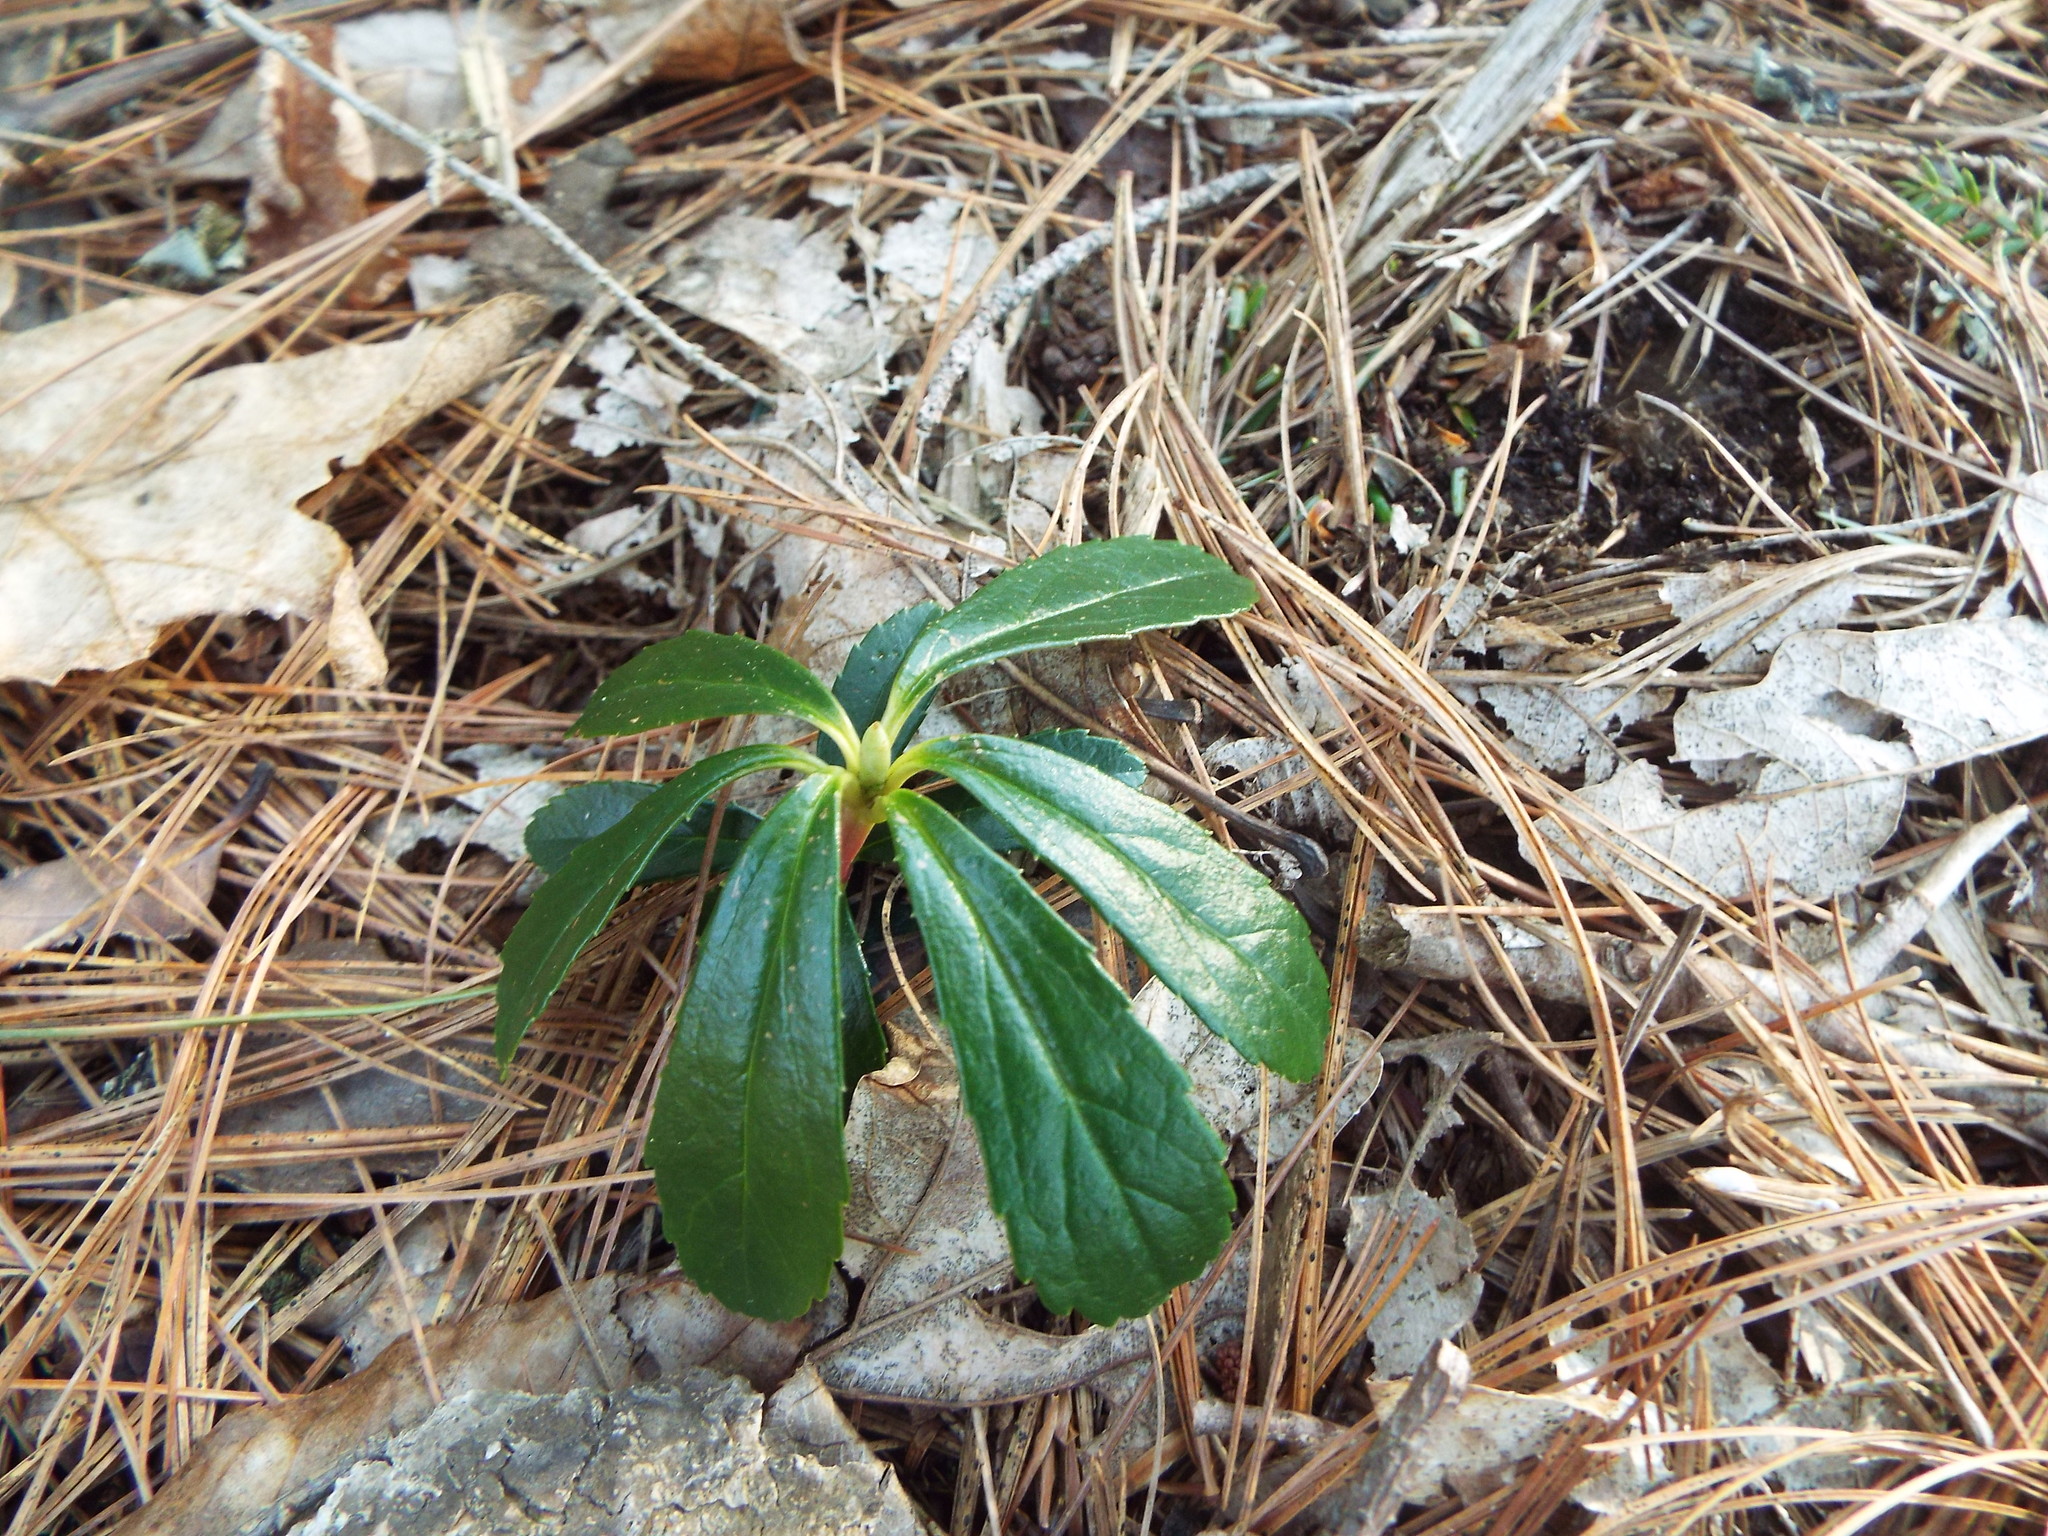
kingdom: Plantae
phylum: Tracheophyta
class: Magnoliopsida
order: Ericales
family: Ericaceae
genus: Chimaphila
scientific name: Chimaphila umbellata
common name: Pipsissewa
